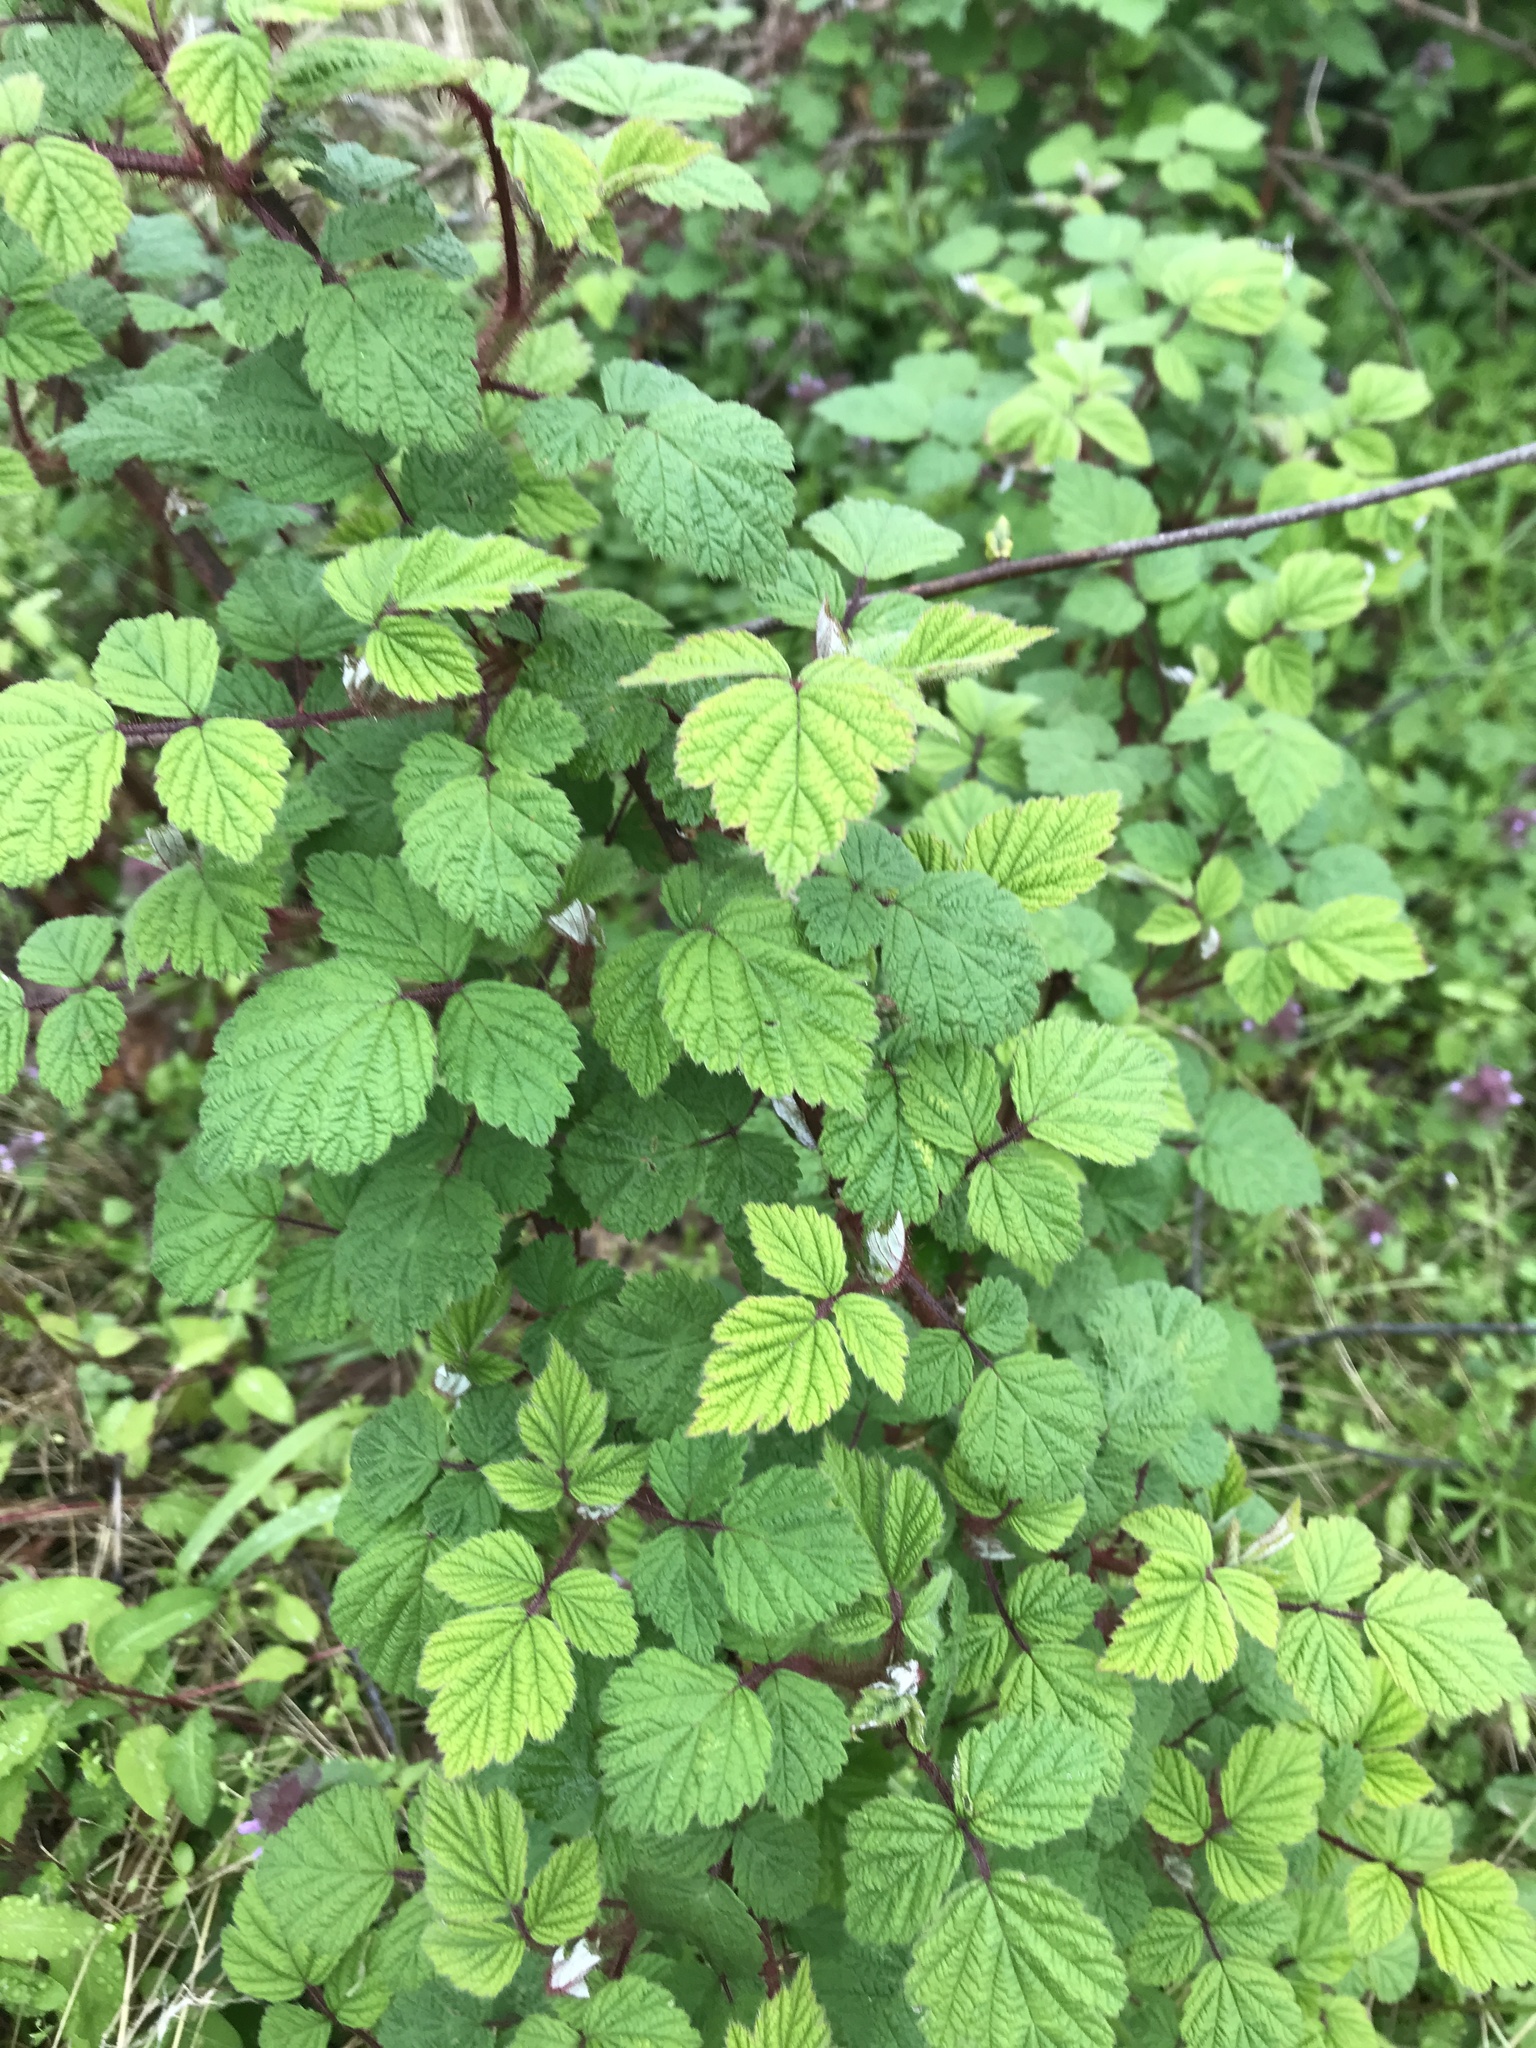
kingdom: Plantae
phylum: Tracheophyta
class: Magnoliopsida
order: Rosales
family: Rosaceae
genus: Rubus
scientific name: Rubus phoenicolasius
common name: Japanese wineberry
